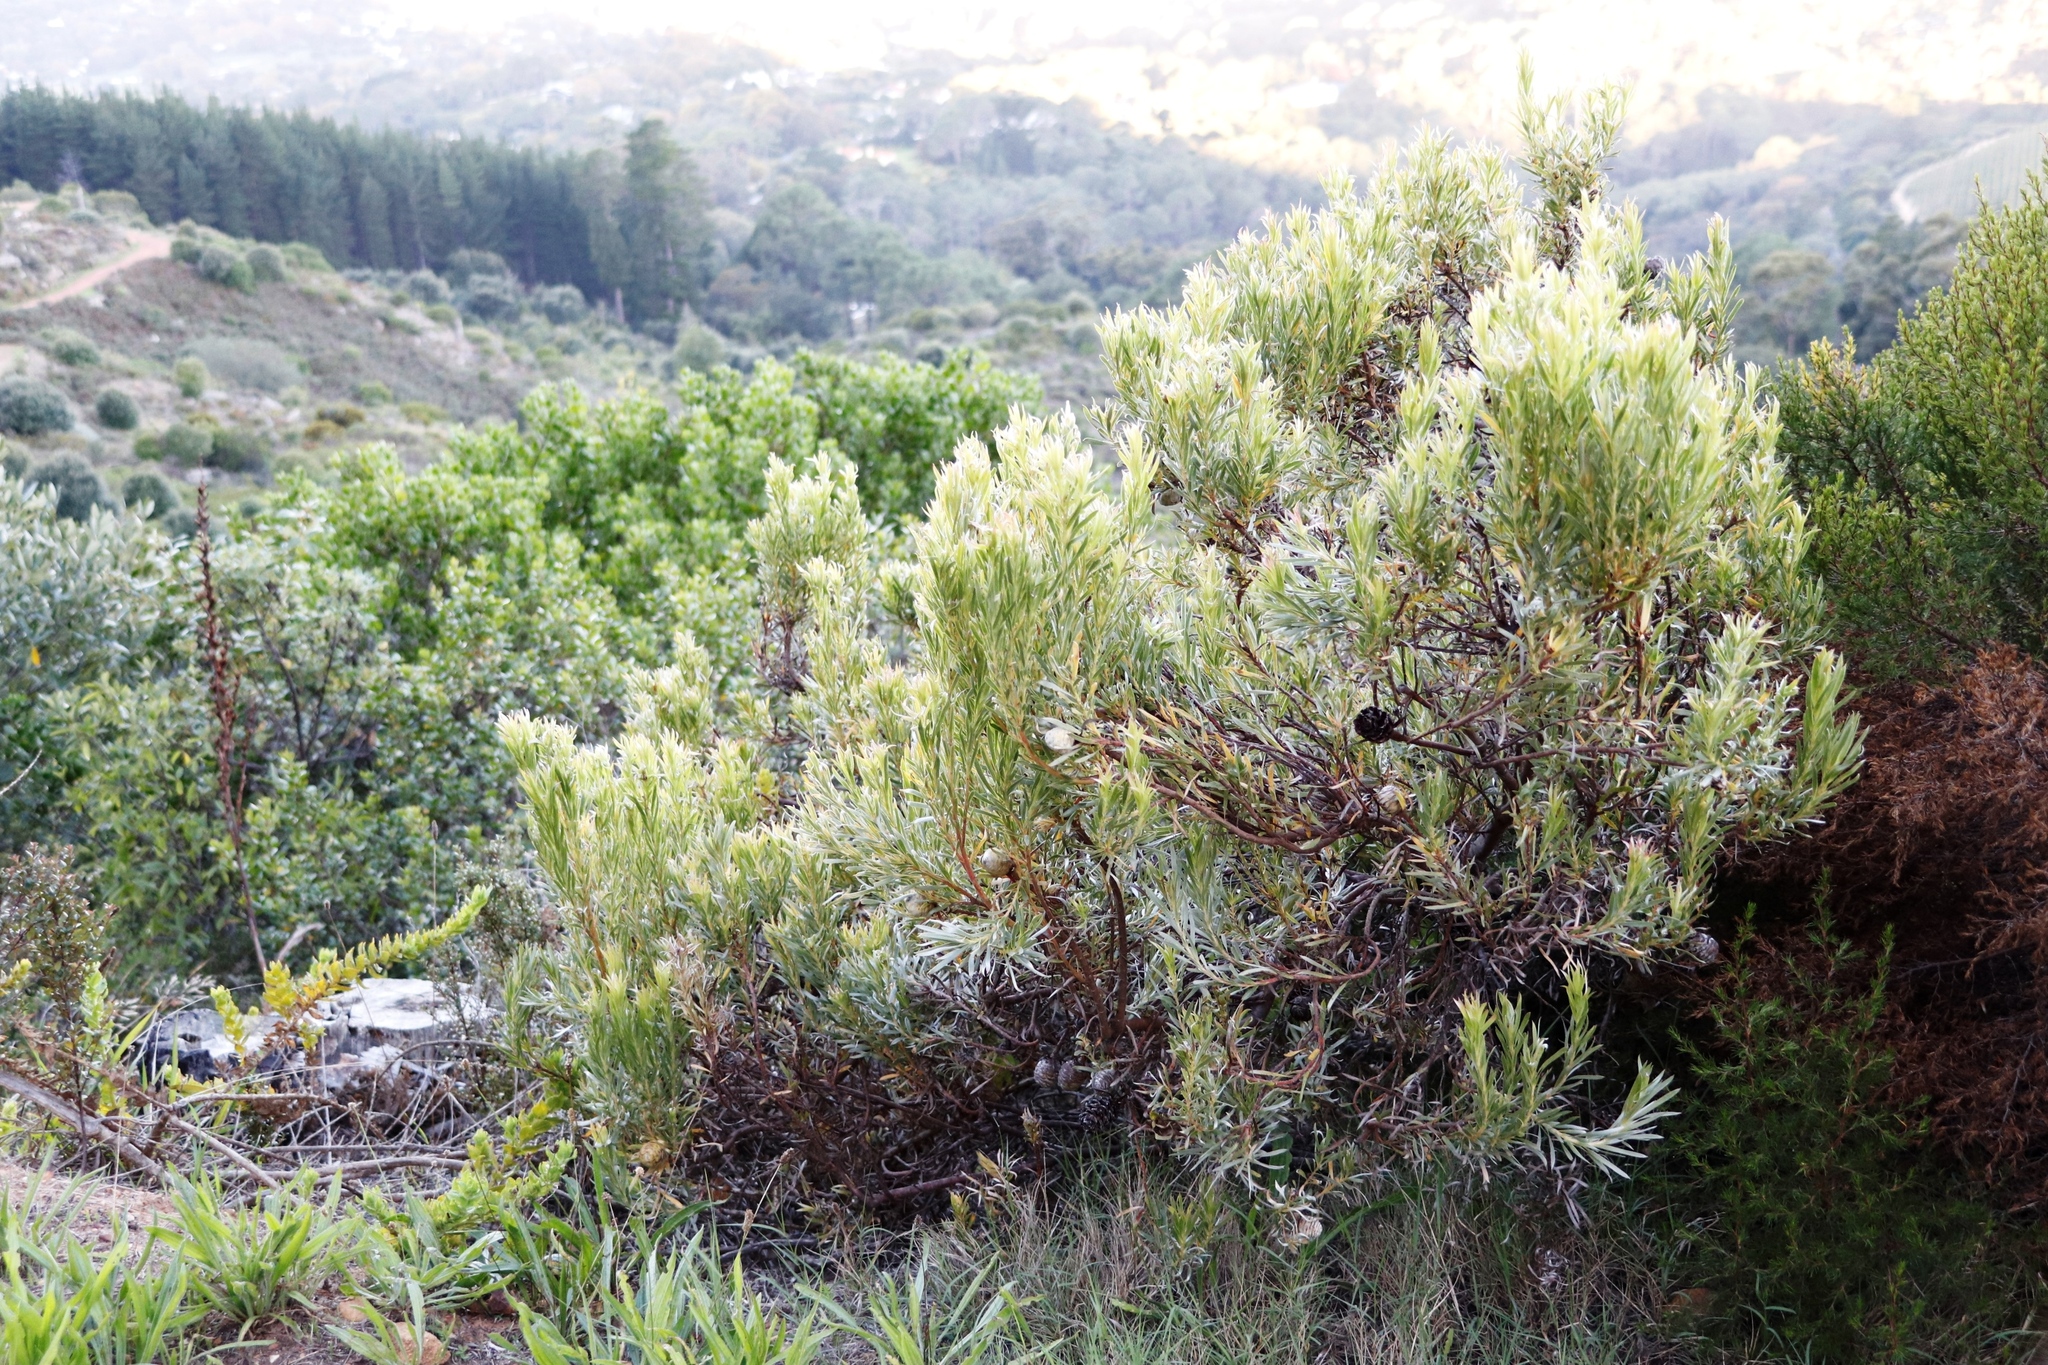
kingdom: Plantae
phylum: Tracheophyta
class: Magnoliopsida
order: Proteales
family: Proteaceae
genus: Leucadendron
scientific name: Leucadendron xanthoconus
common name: Sickle-leaf conebush
